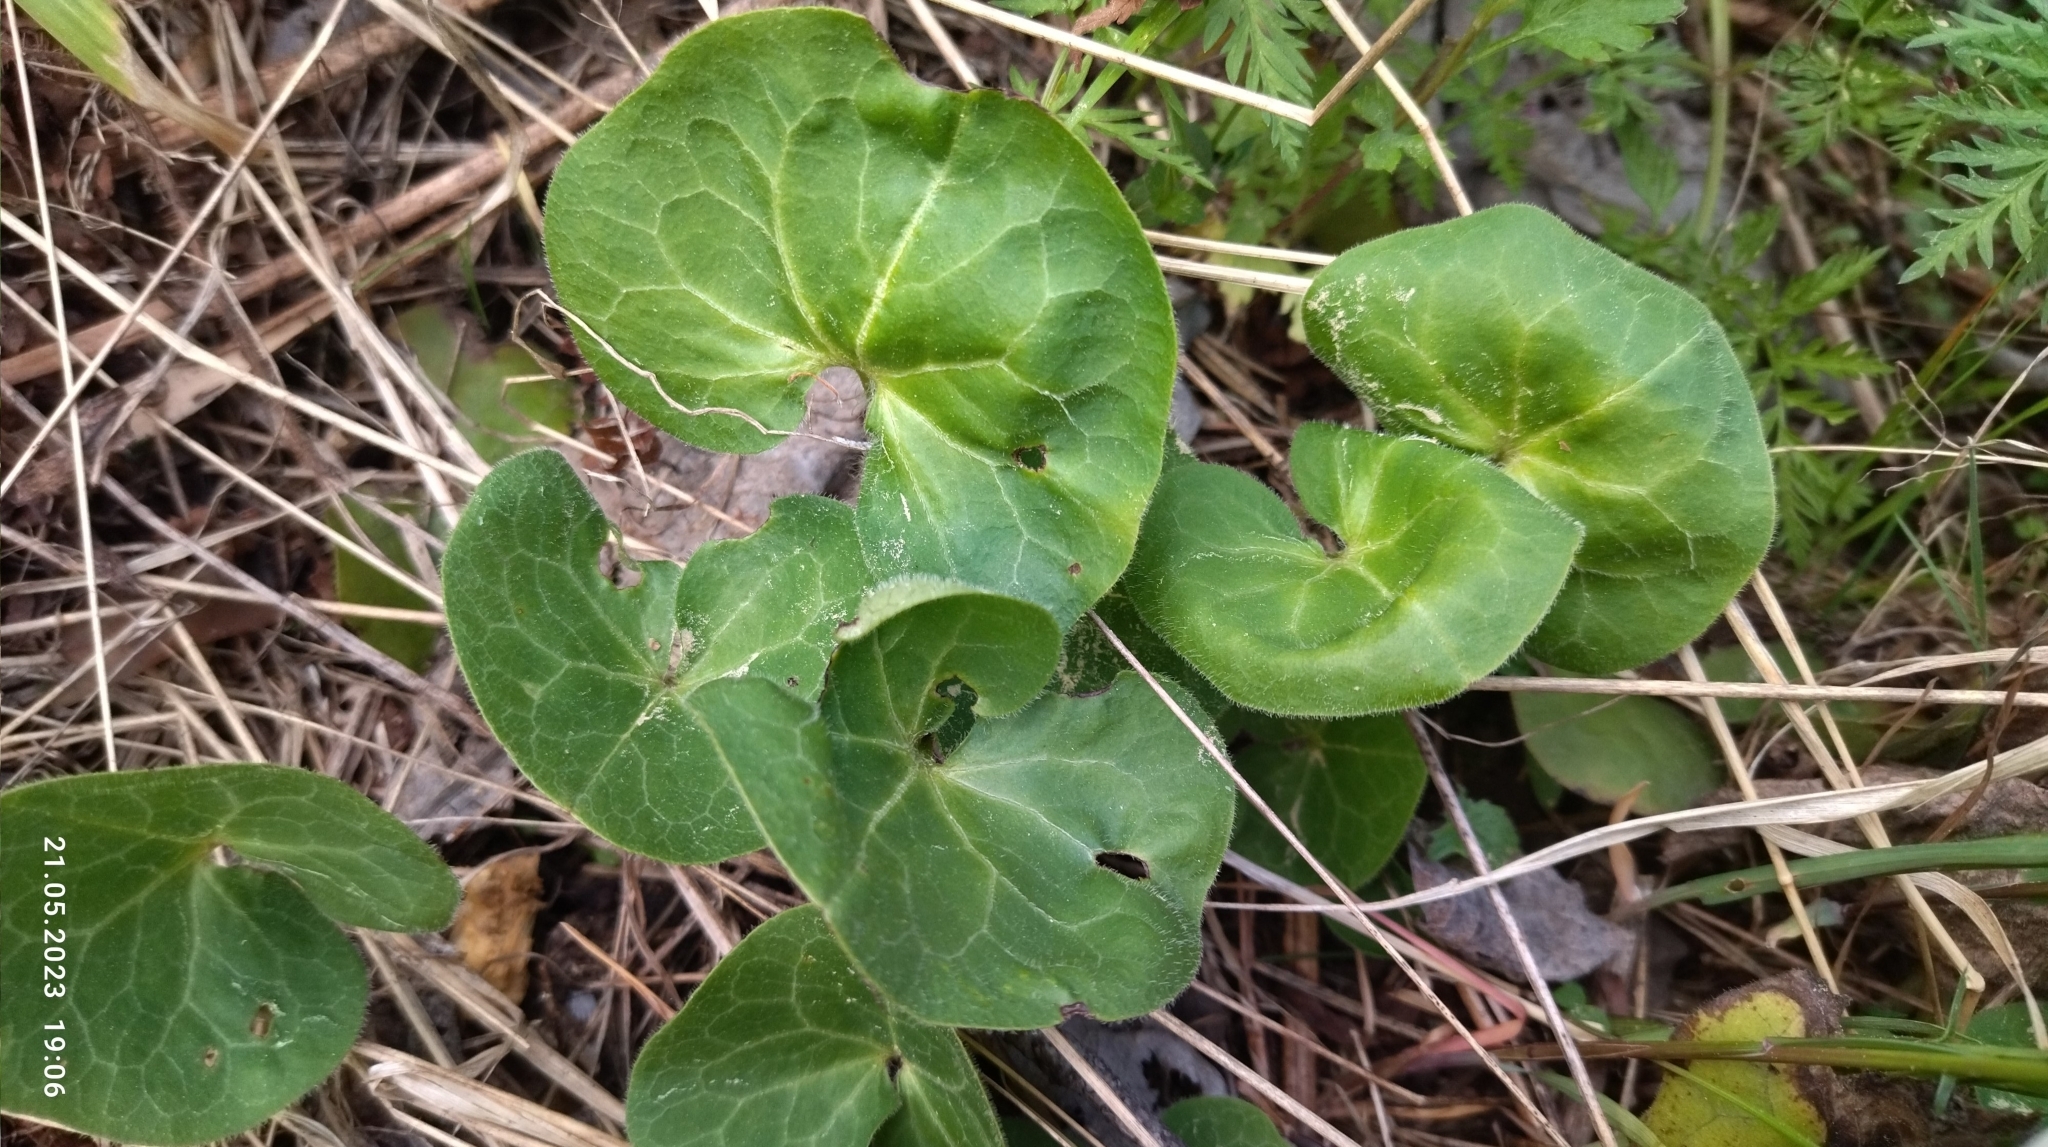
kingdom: Plantae
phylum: Tracheophyta
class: Magnoliopsida
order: Piperales
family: Aristolochiaceae
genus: Asarum
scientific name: Asarum europaeum
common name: Asarabacca
